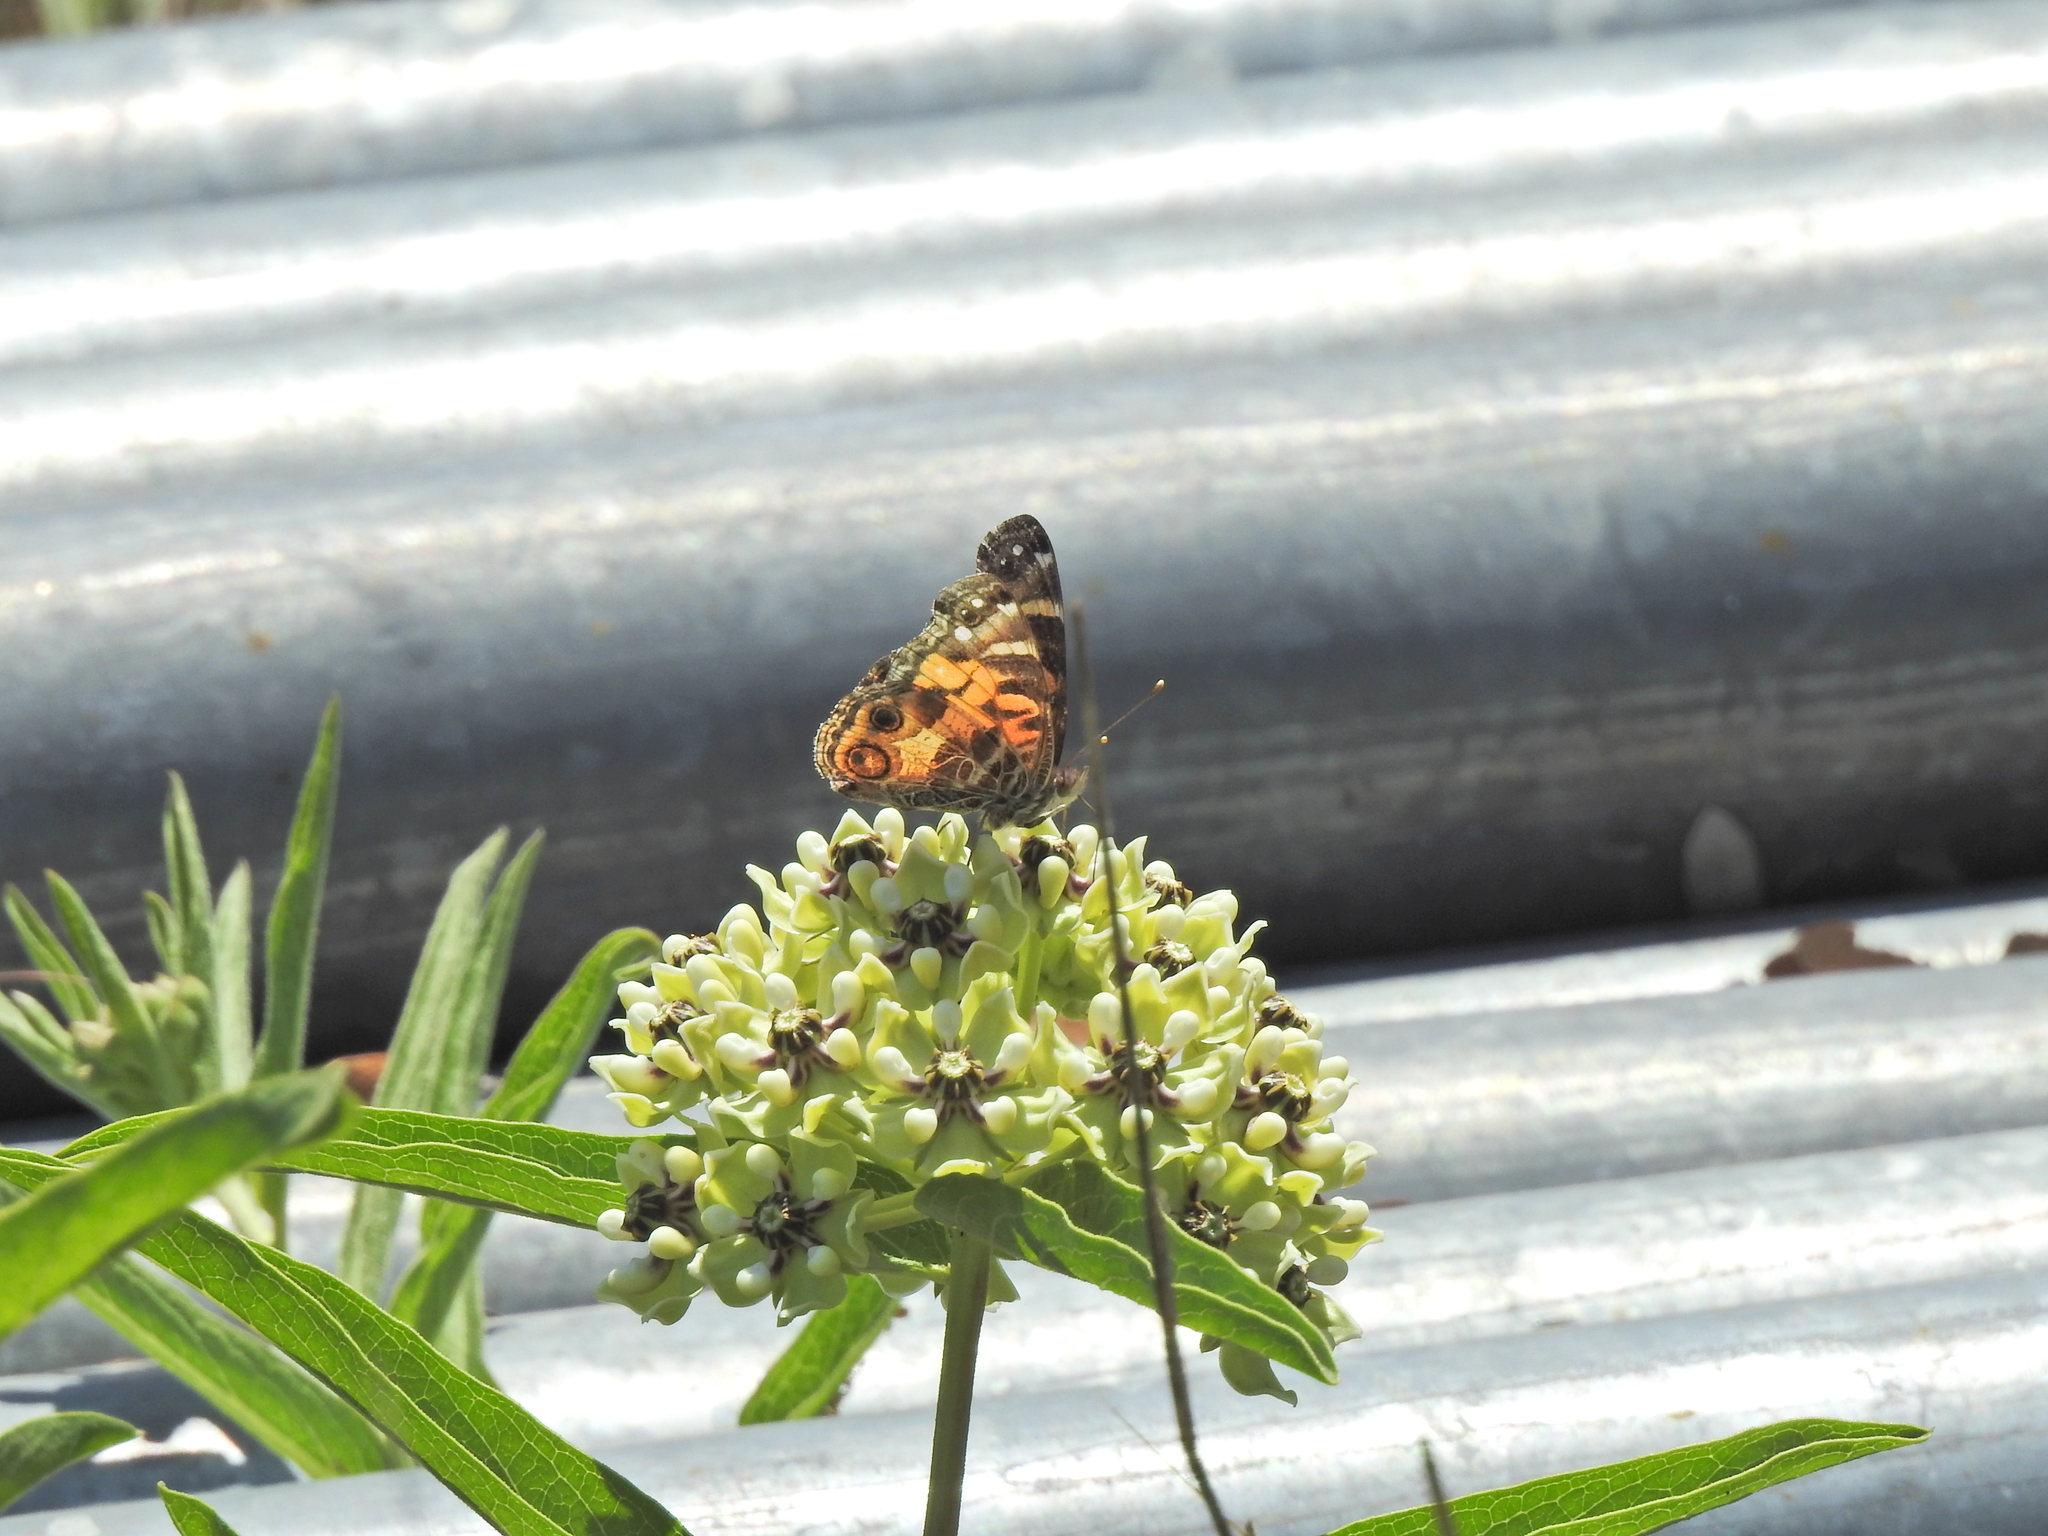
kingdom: Animalia
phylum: Arthropoda
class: Insecta
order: Lepidoptera
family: Nymphalidae
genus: Vanessa
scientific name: Vanessa virginiensis
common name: American lady
